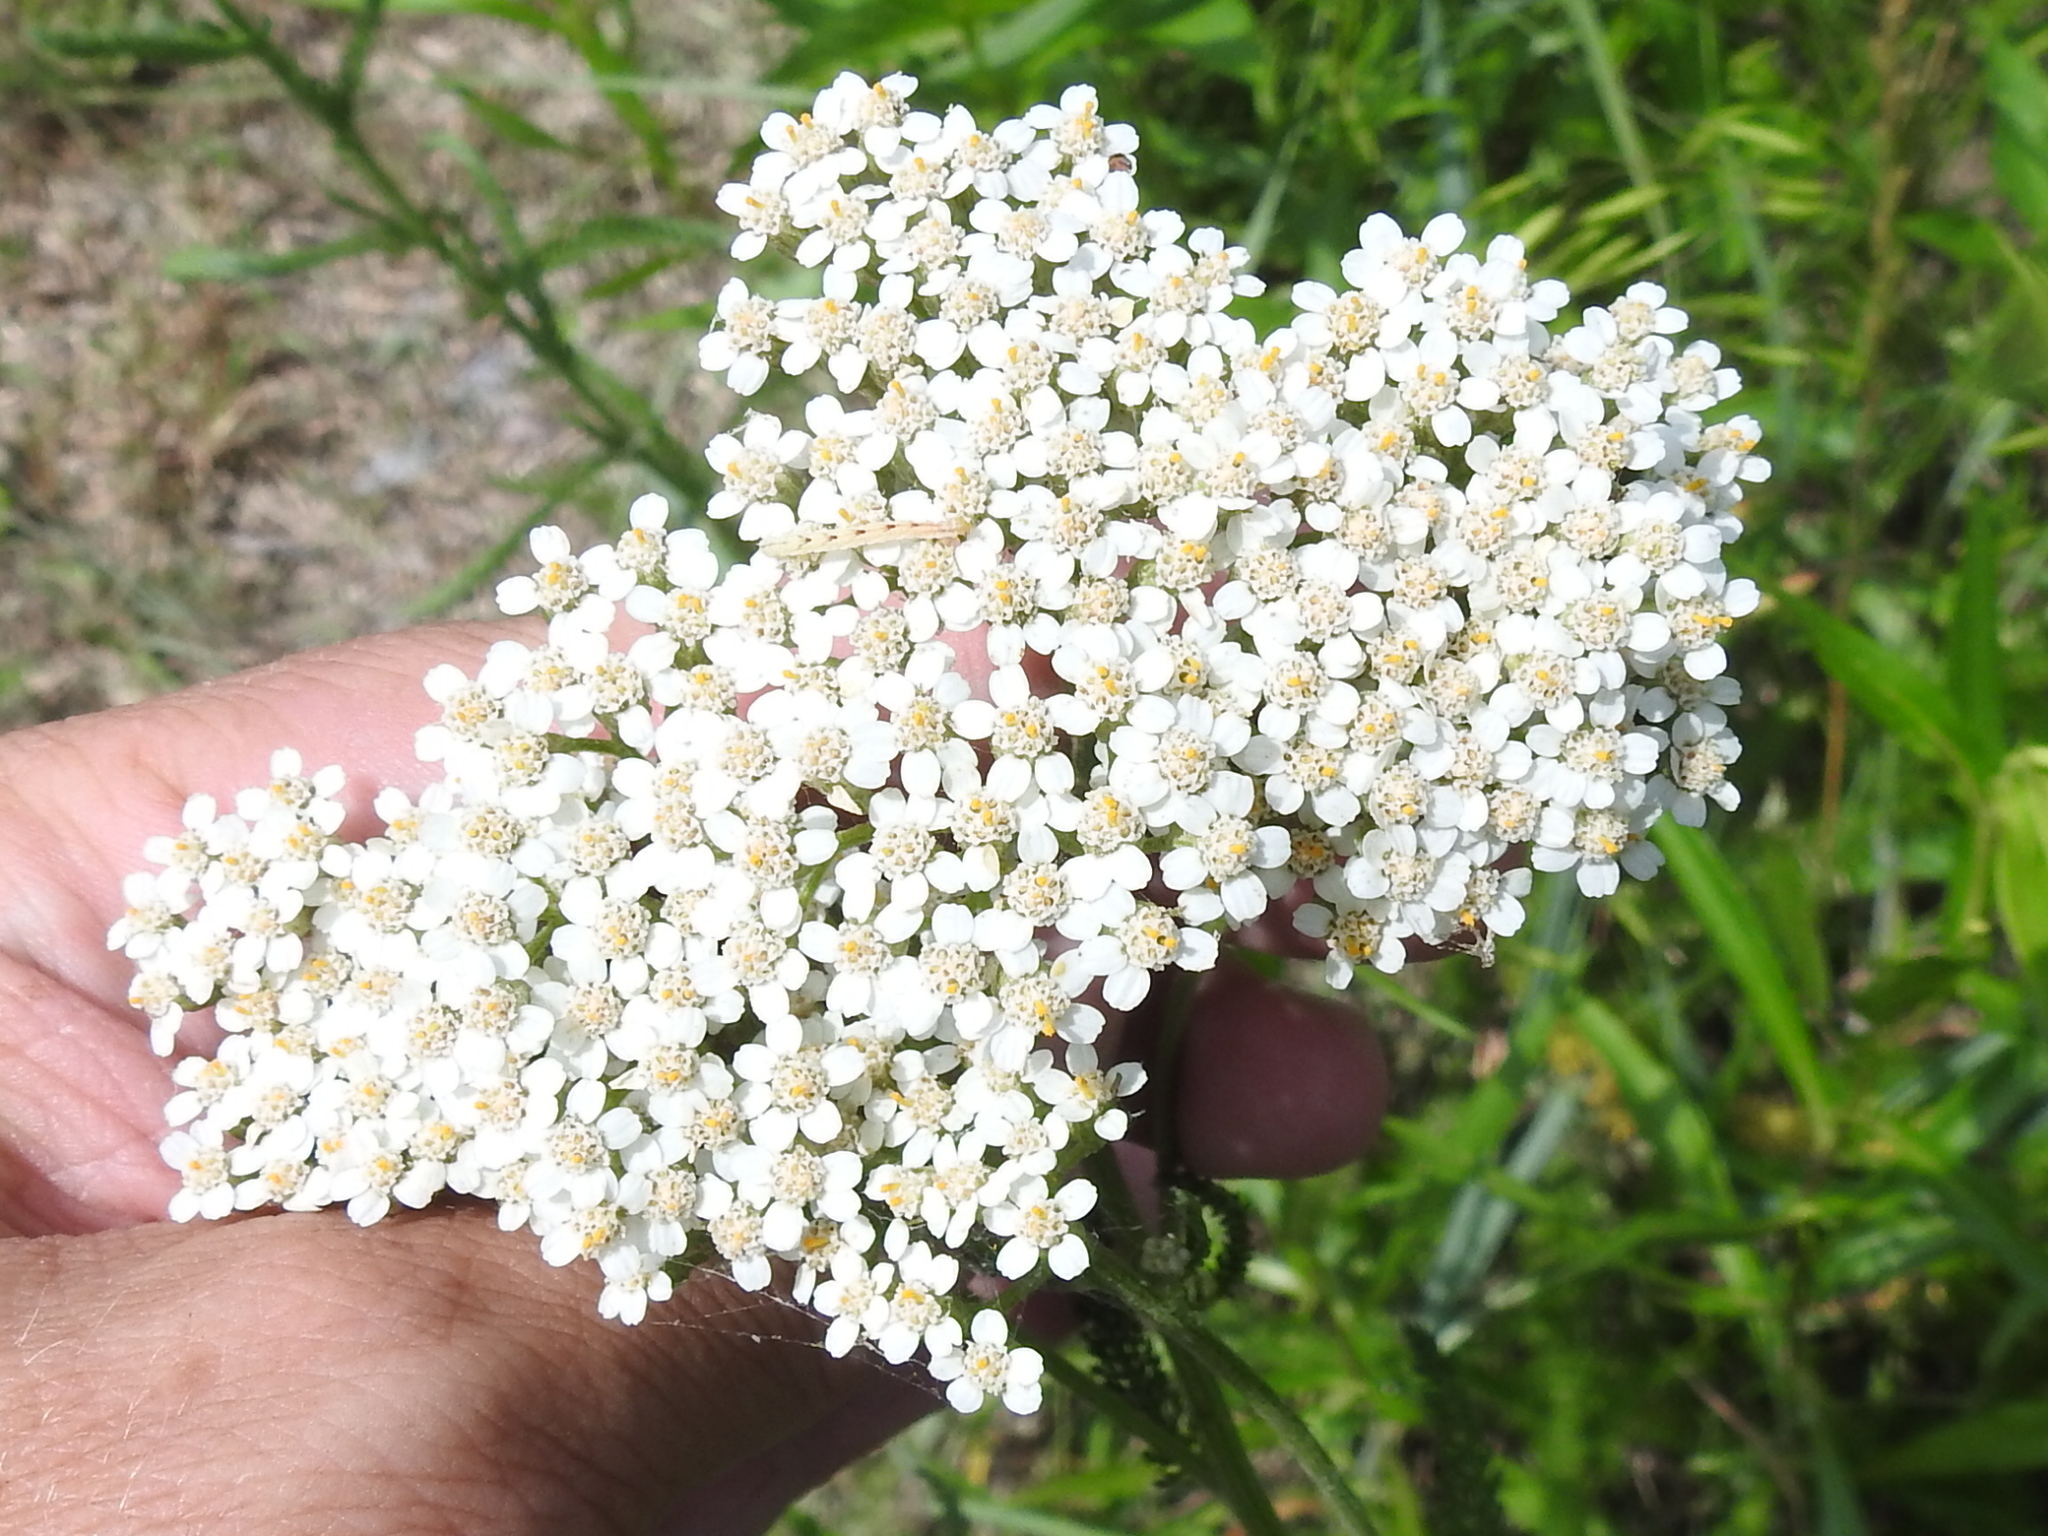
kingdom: Plantae
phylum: Tracheophyta
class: Magnoliopsida
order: Asterales
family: Asteraceae
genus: Achillea
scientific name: Achillea millefolium
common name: Yarrow
